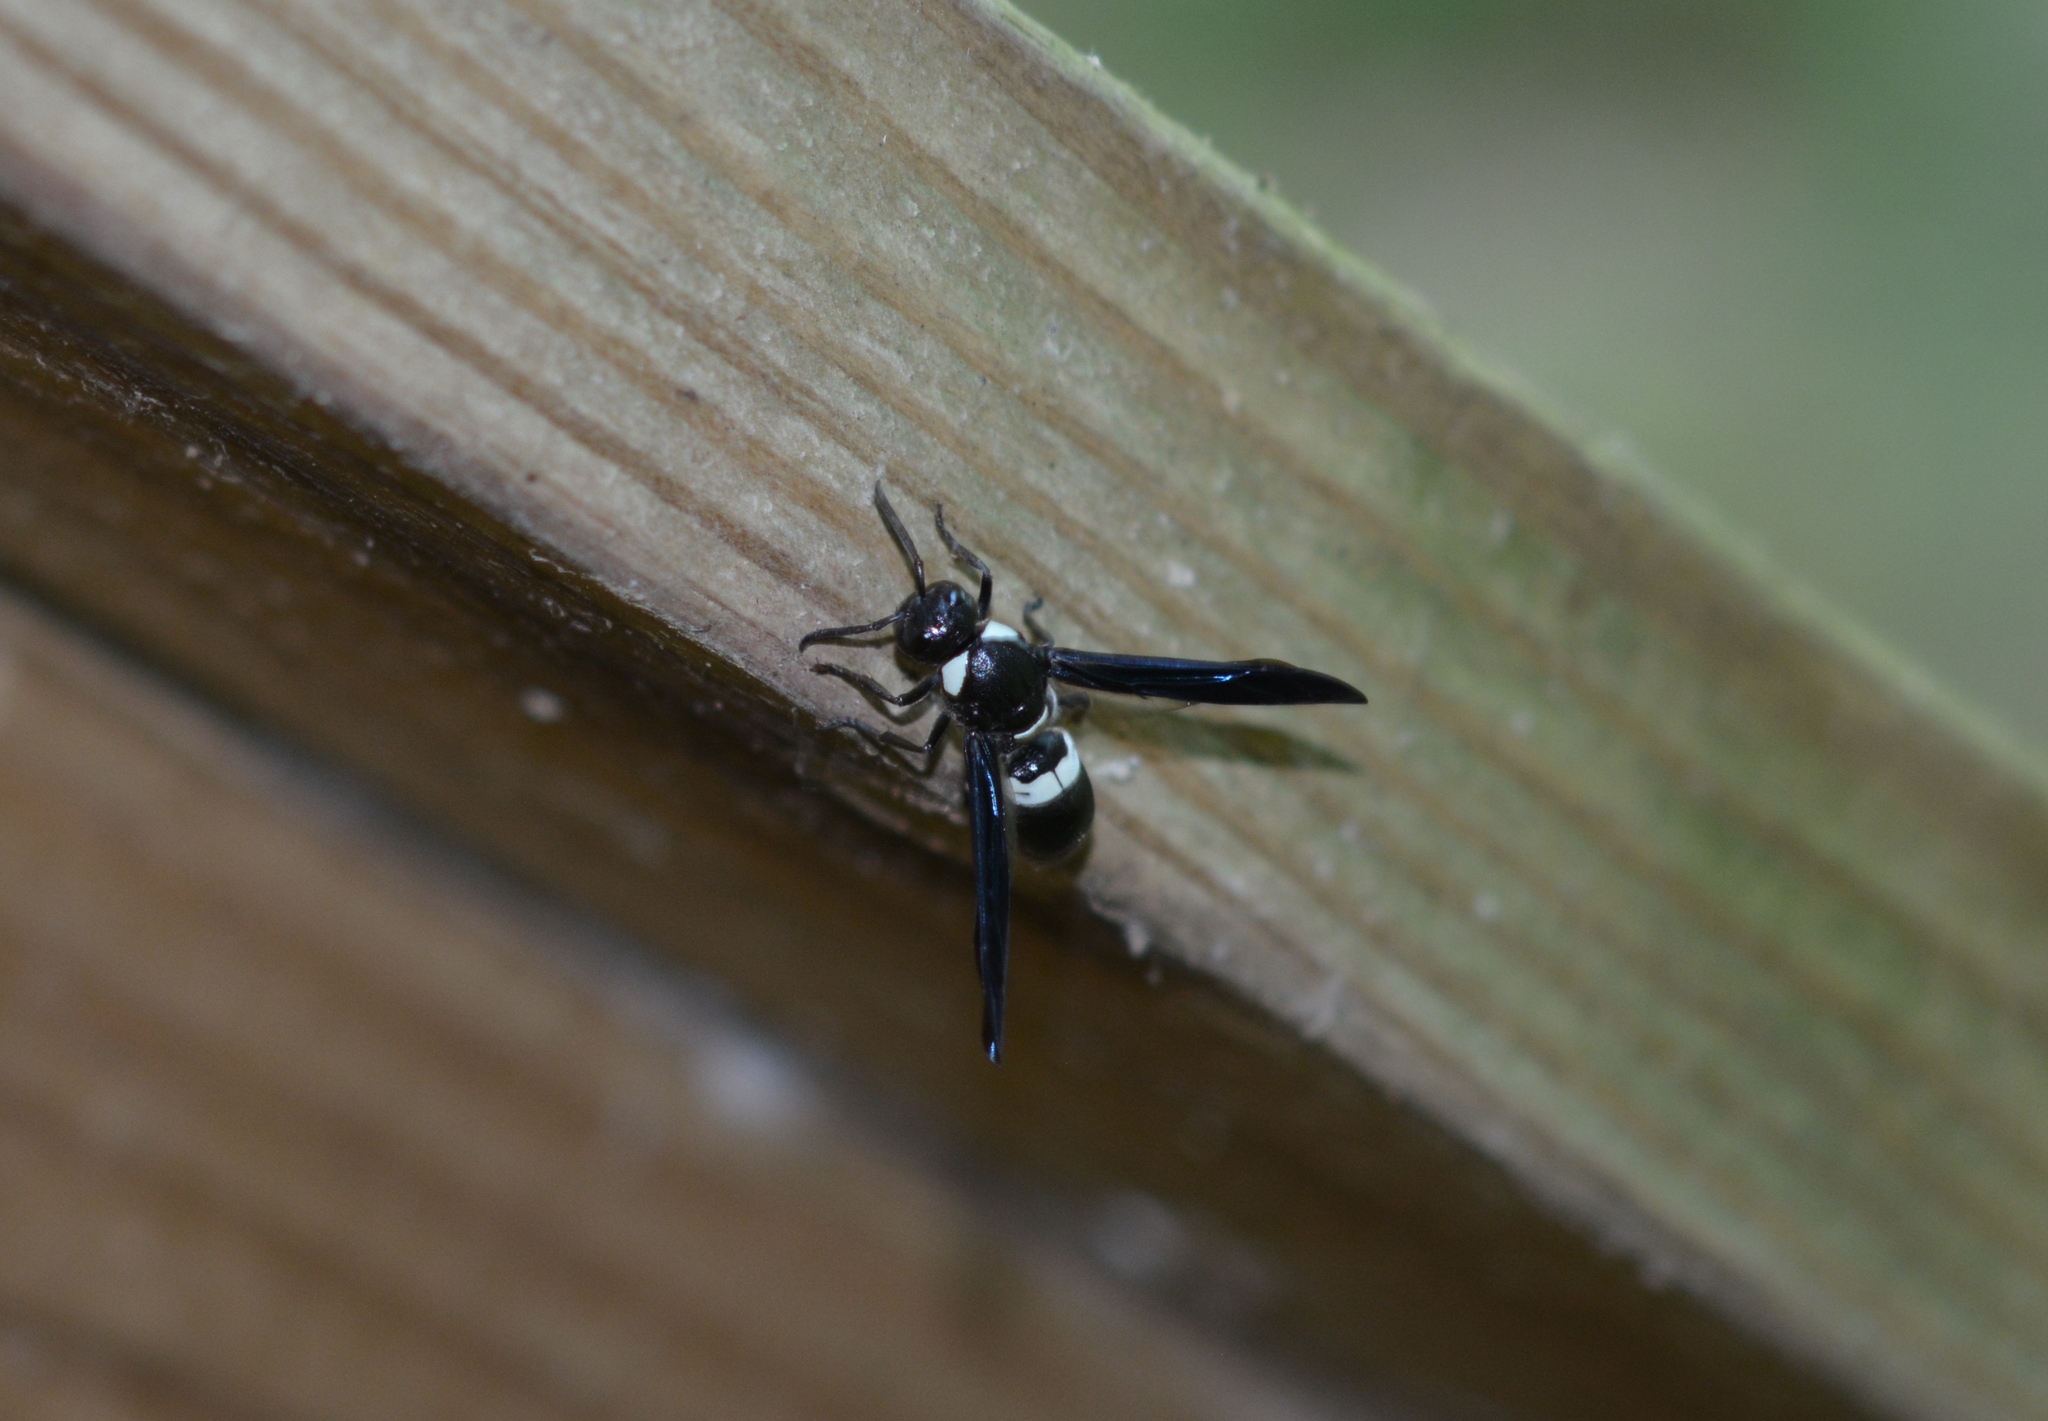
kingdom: Animalia
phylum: Arthropoda
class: Insecta
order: Hymenoptera
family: Eumenidae
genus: Monobia
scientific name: Monobia quadridens
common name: Four-toothed mason wasp
